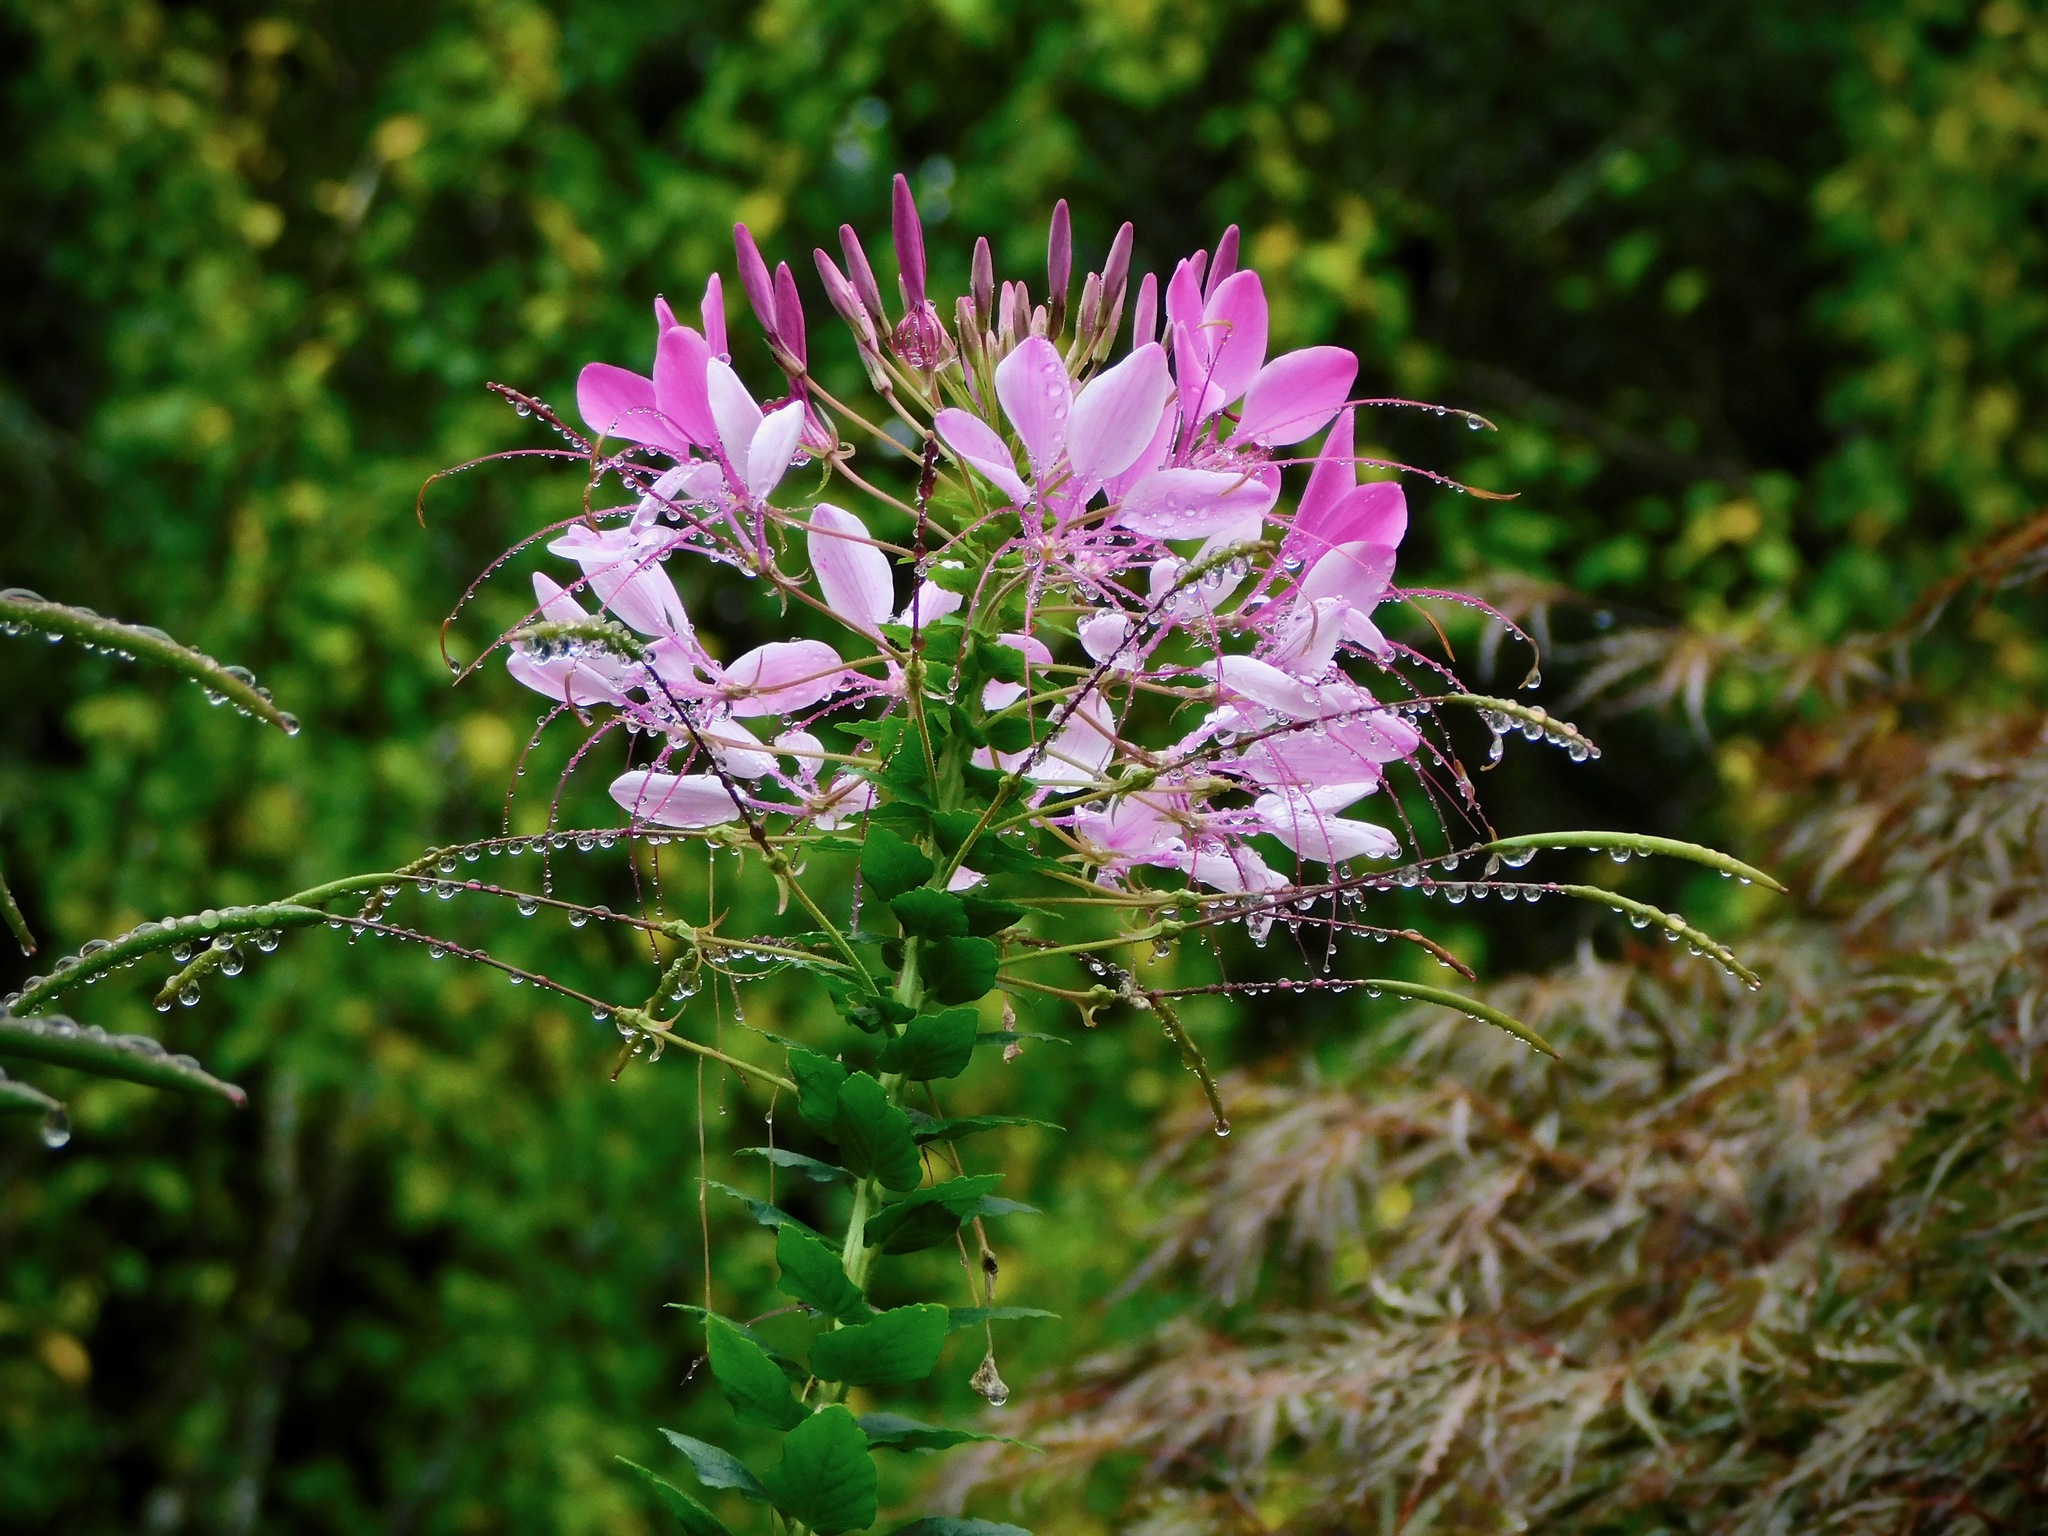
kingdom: Plantae
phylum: Tracheophyta
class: Magnoliopsida
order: Brassicales
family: Cleomaceae
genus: Tarenaya
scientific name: Tarenaya houtteana
